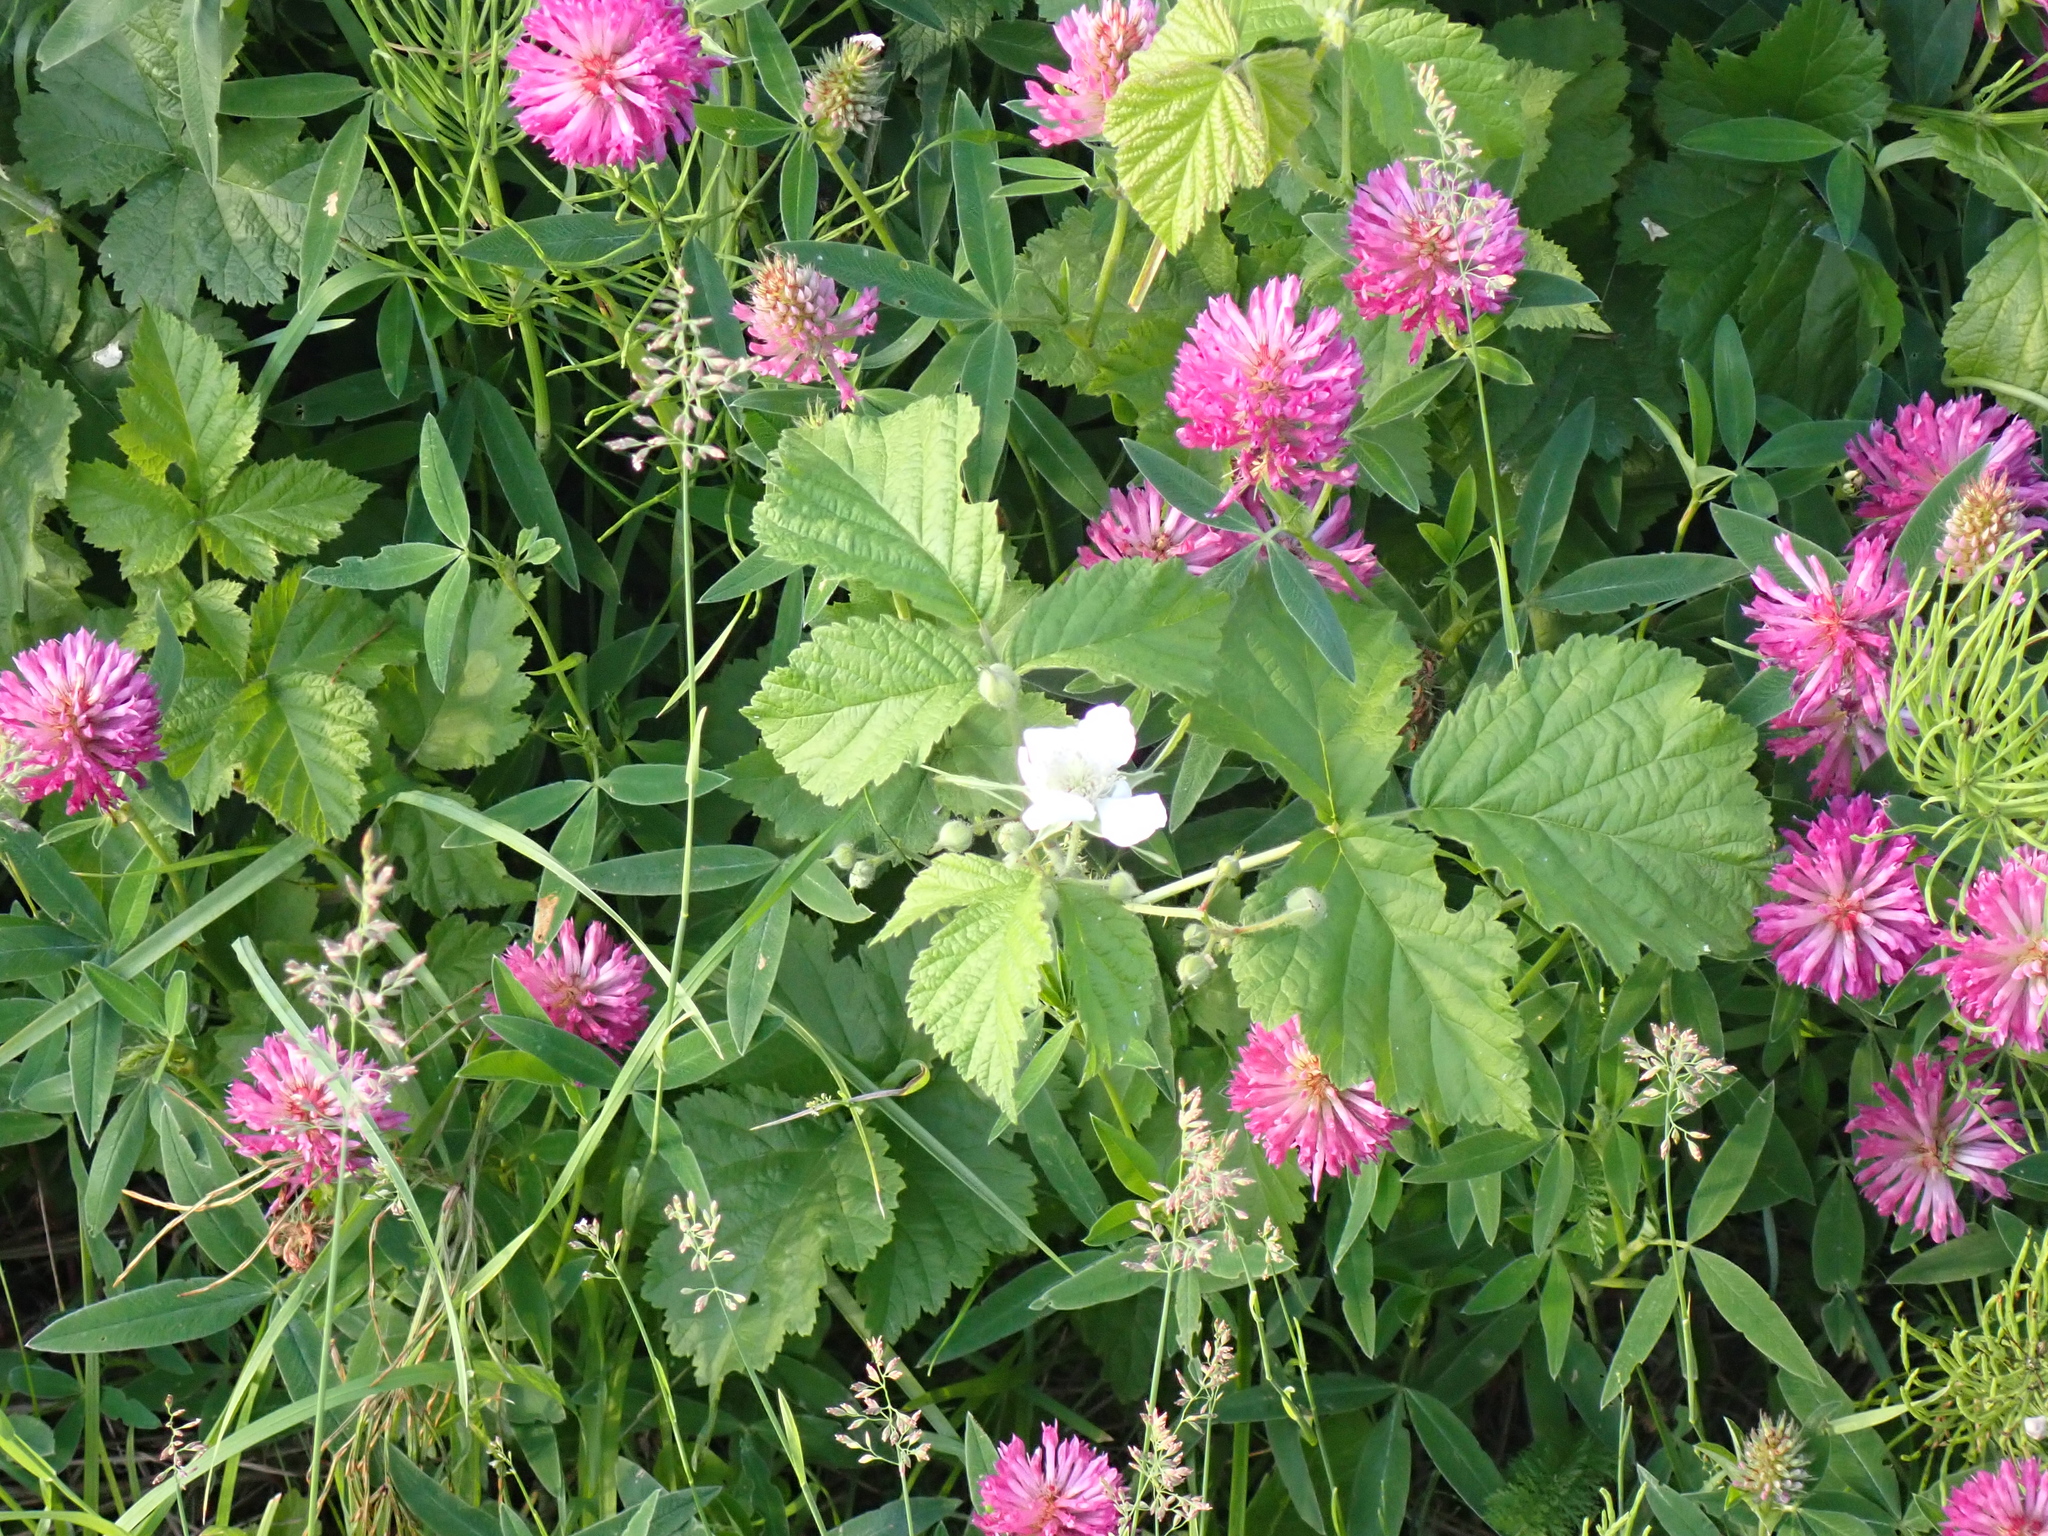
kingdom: Plantae
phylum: Tracheophyta
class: Magnoliopsida
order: Rosales
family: Rosaceae
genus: Rubus
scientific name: Rubus caesius
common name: Dewberry
